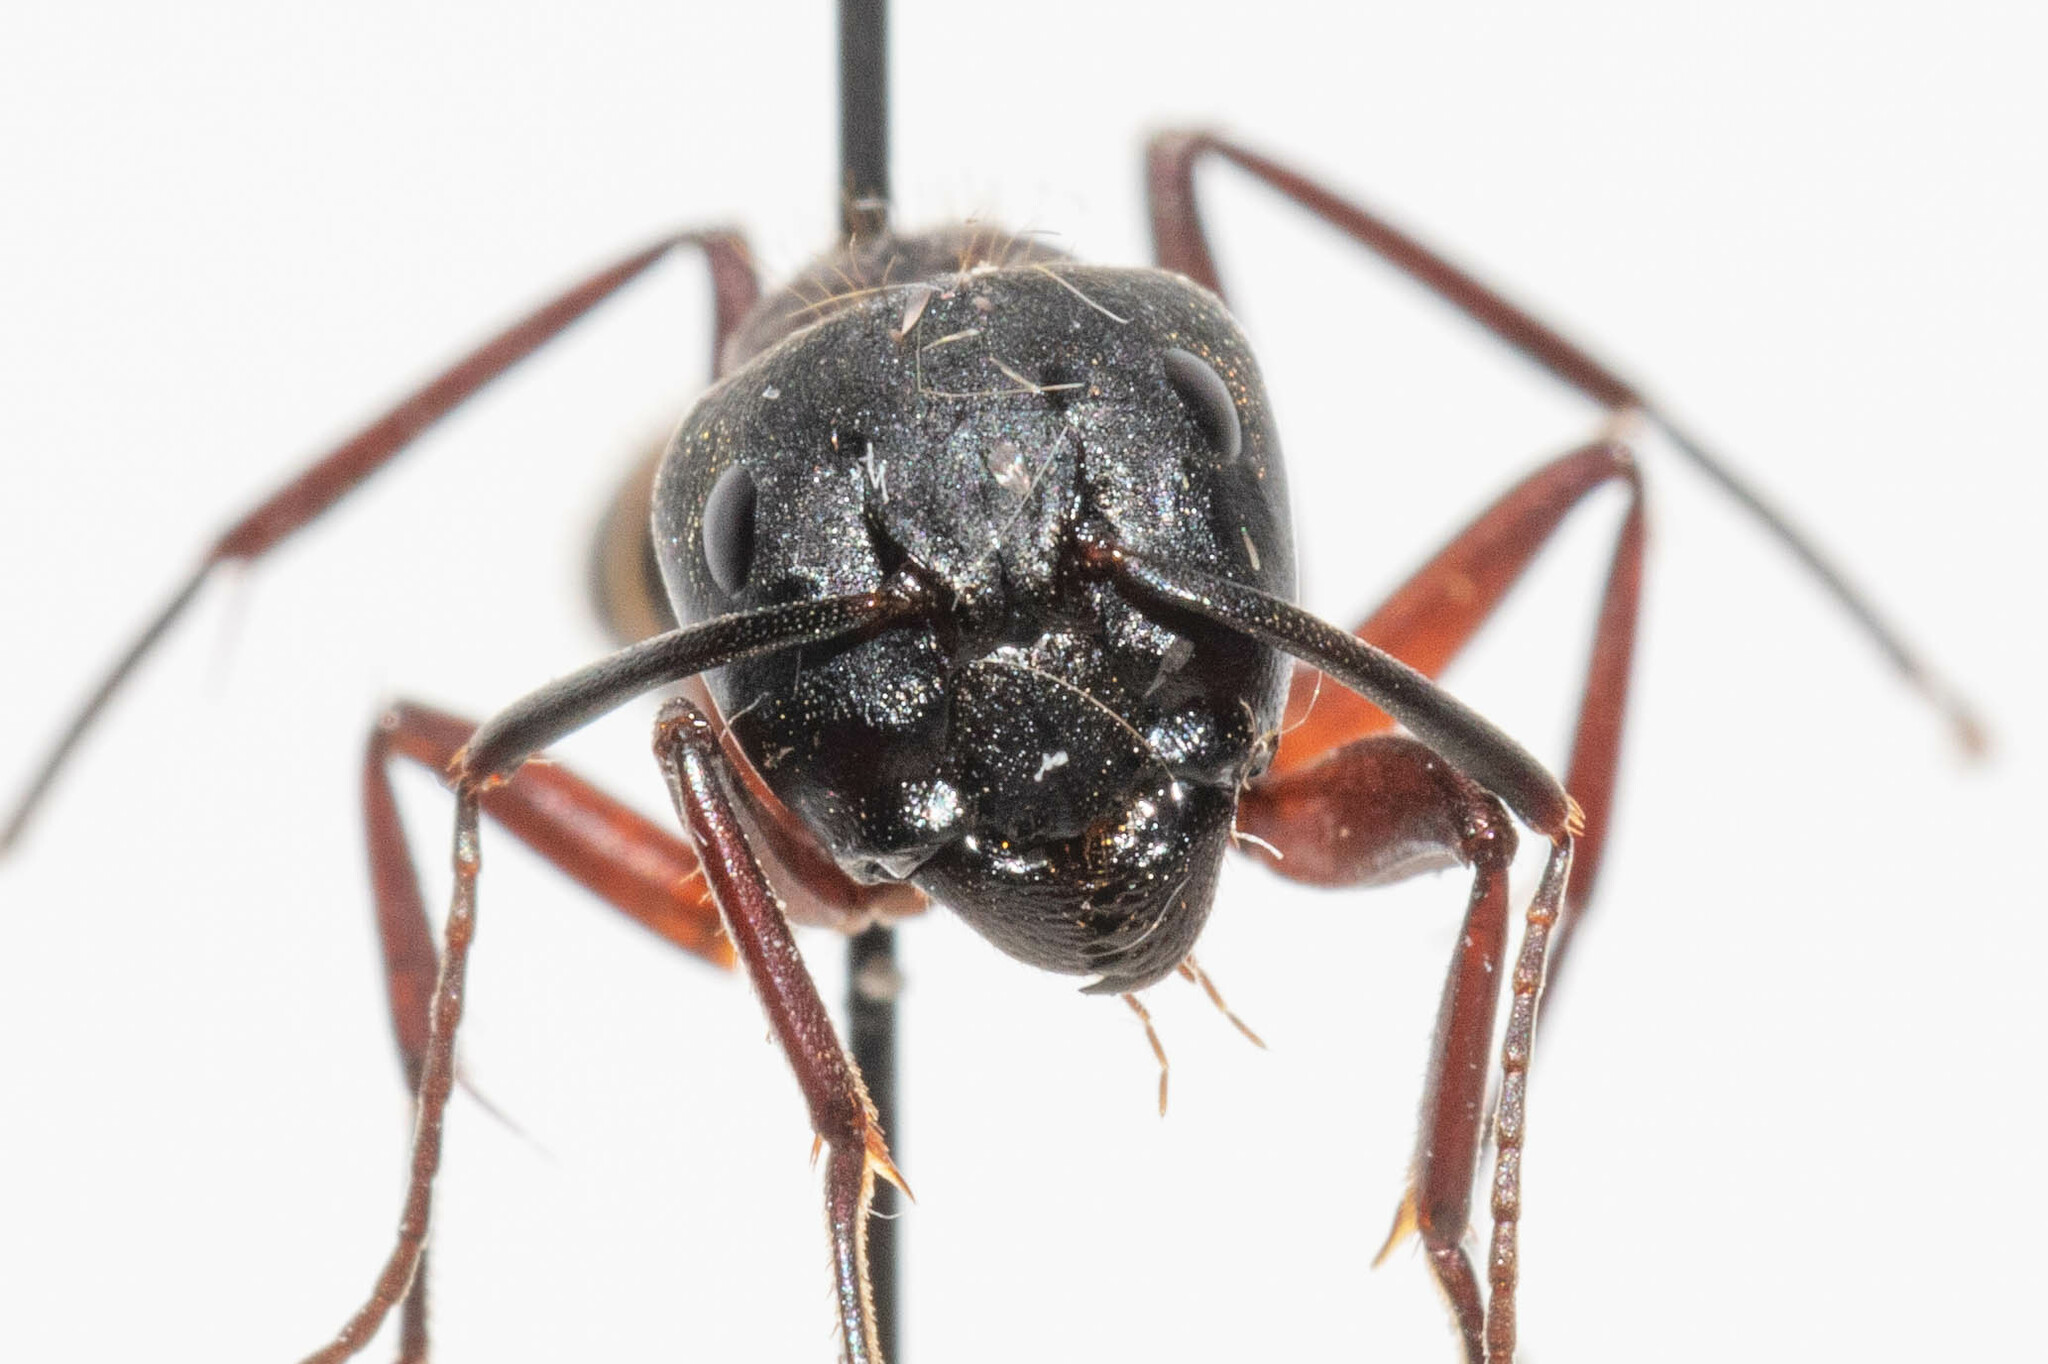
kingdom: Animalia
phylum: Arthropoda
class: Insecta
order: Hymenoptera
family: Formicidae
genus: Camponotus
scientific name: Camponotus vicinus
